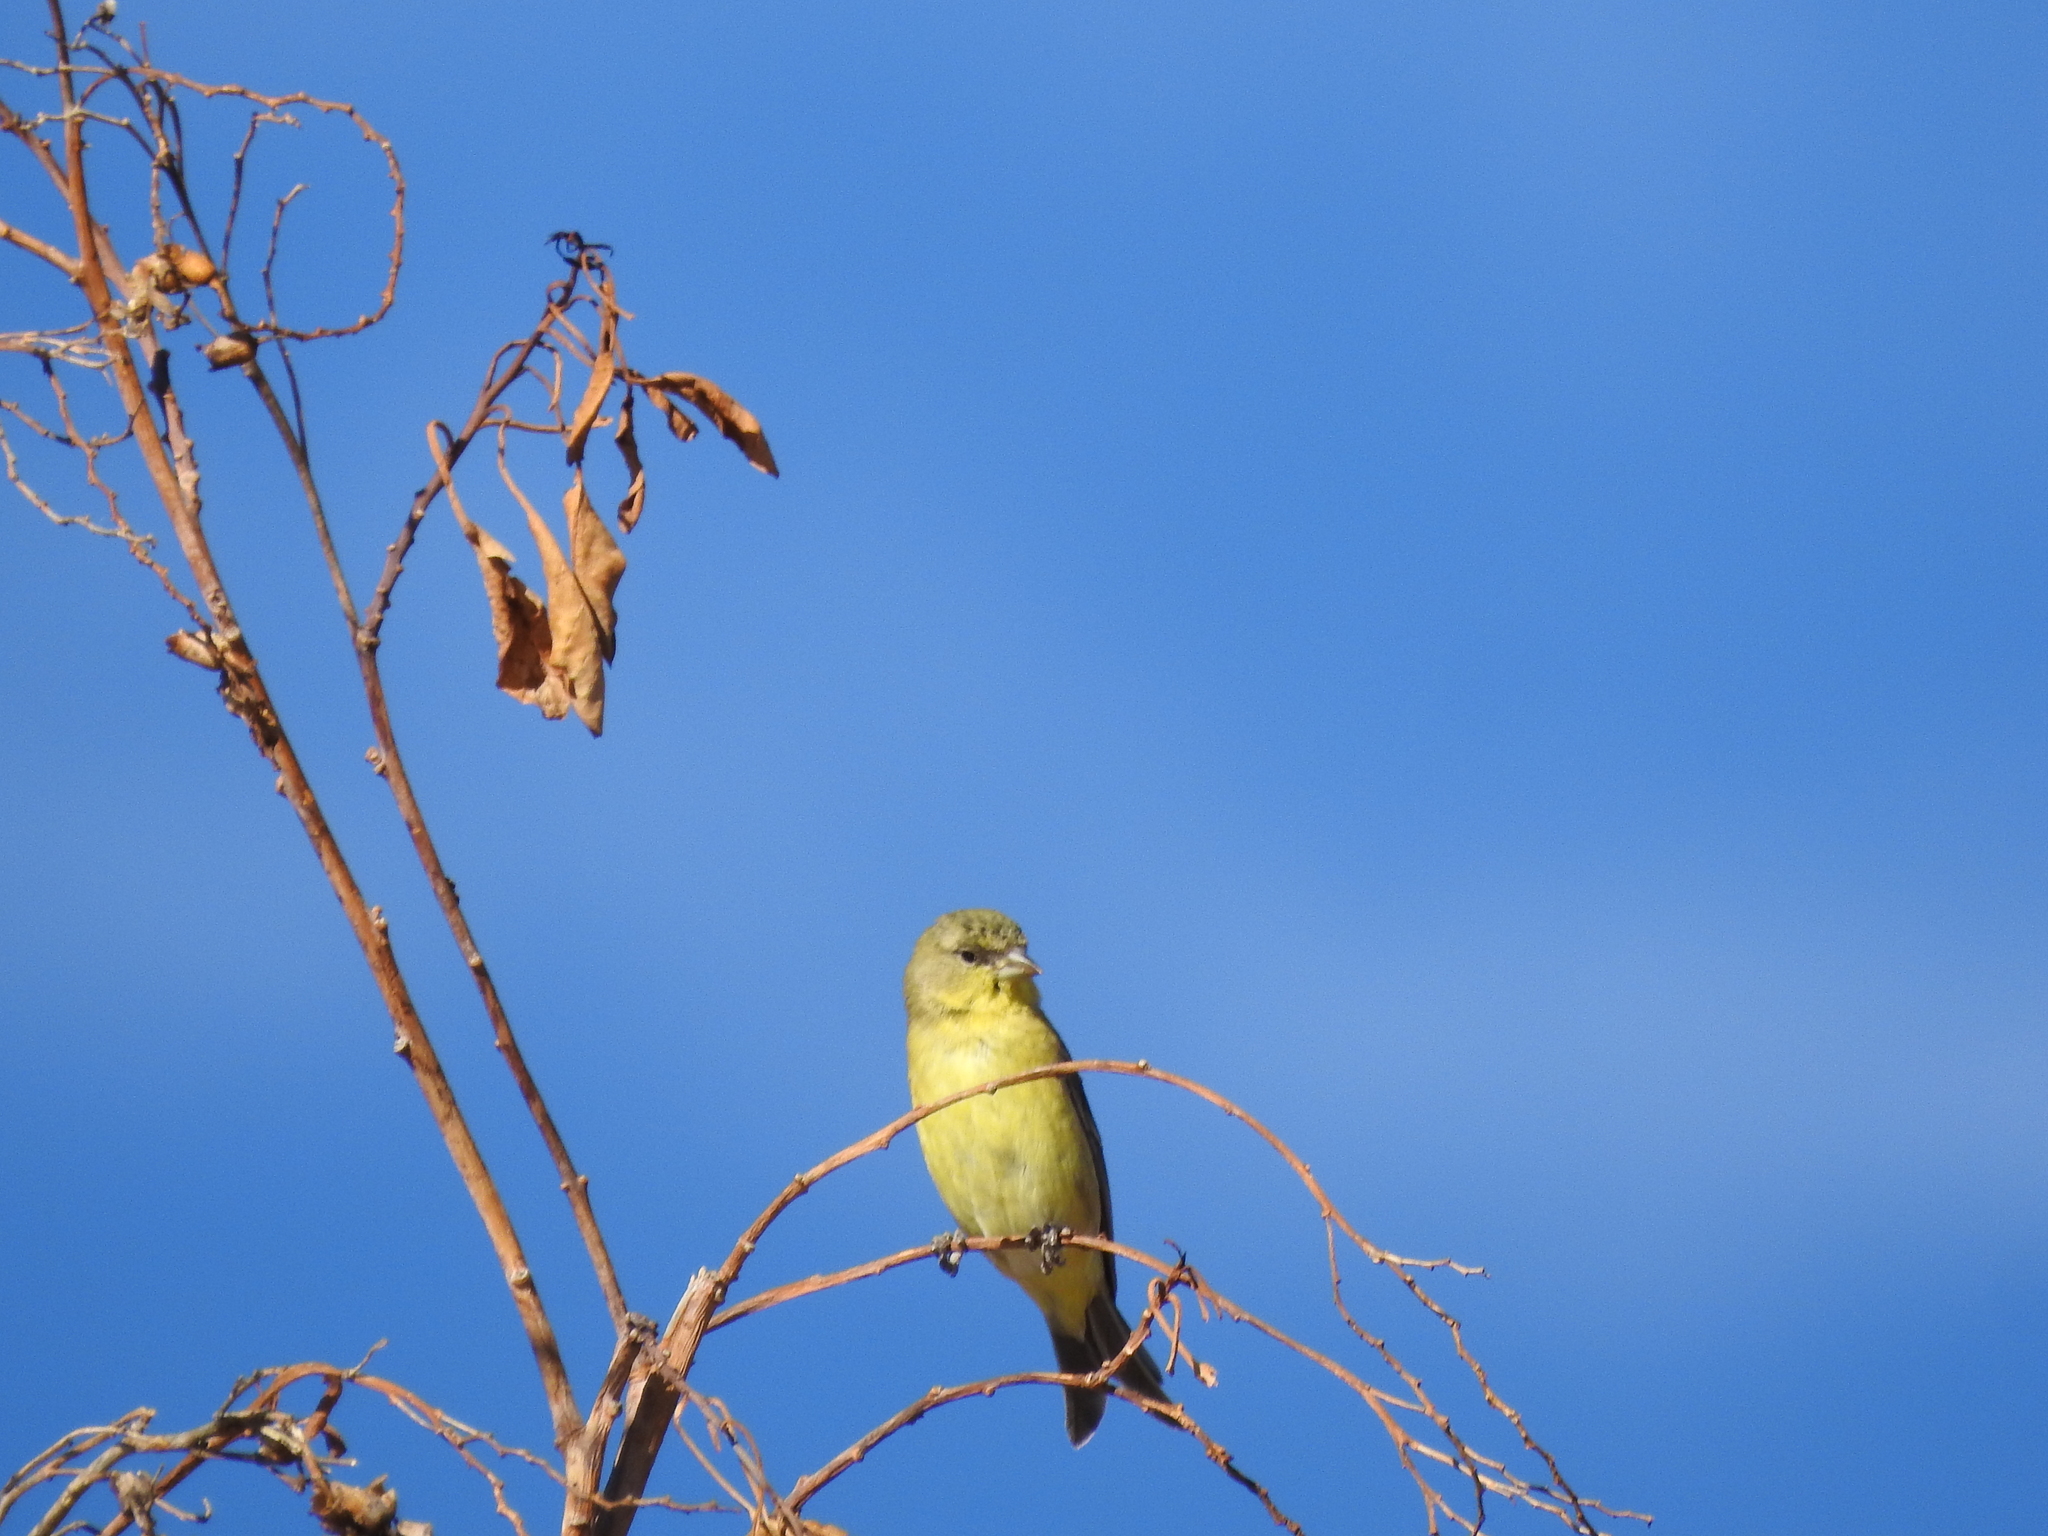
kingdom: Animalia
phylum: Chordata
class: Aves
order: Passeriformes
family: Fringillidae
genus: Spinus
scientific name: Spinus psaltria
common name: Lesser goldfinch
